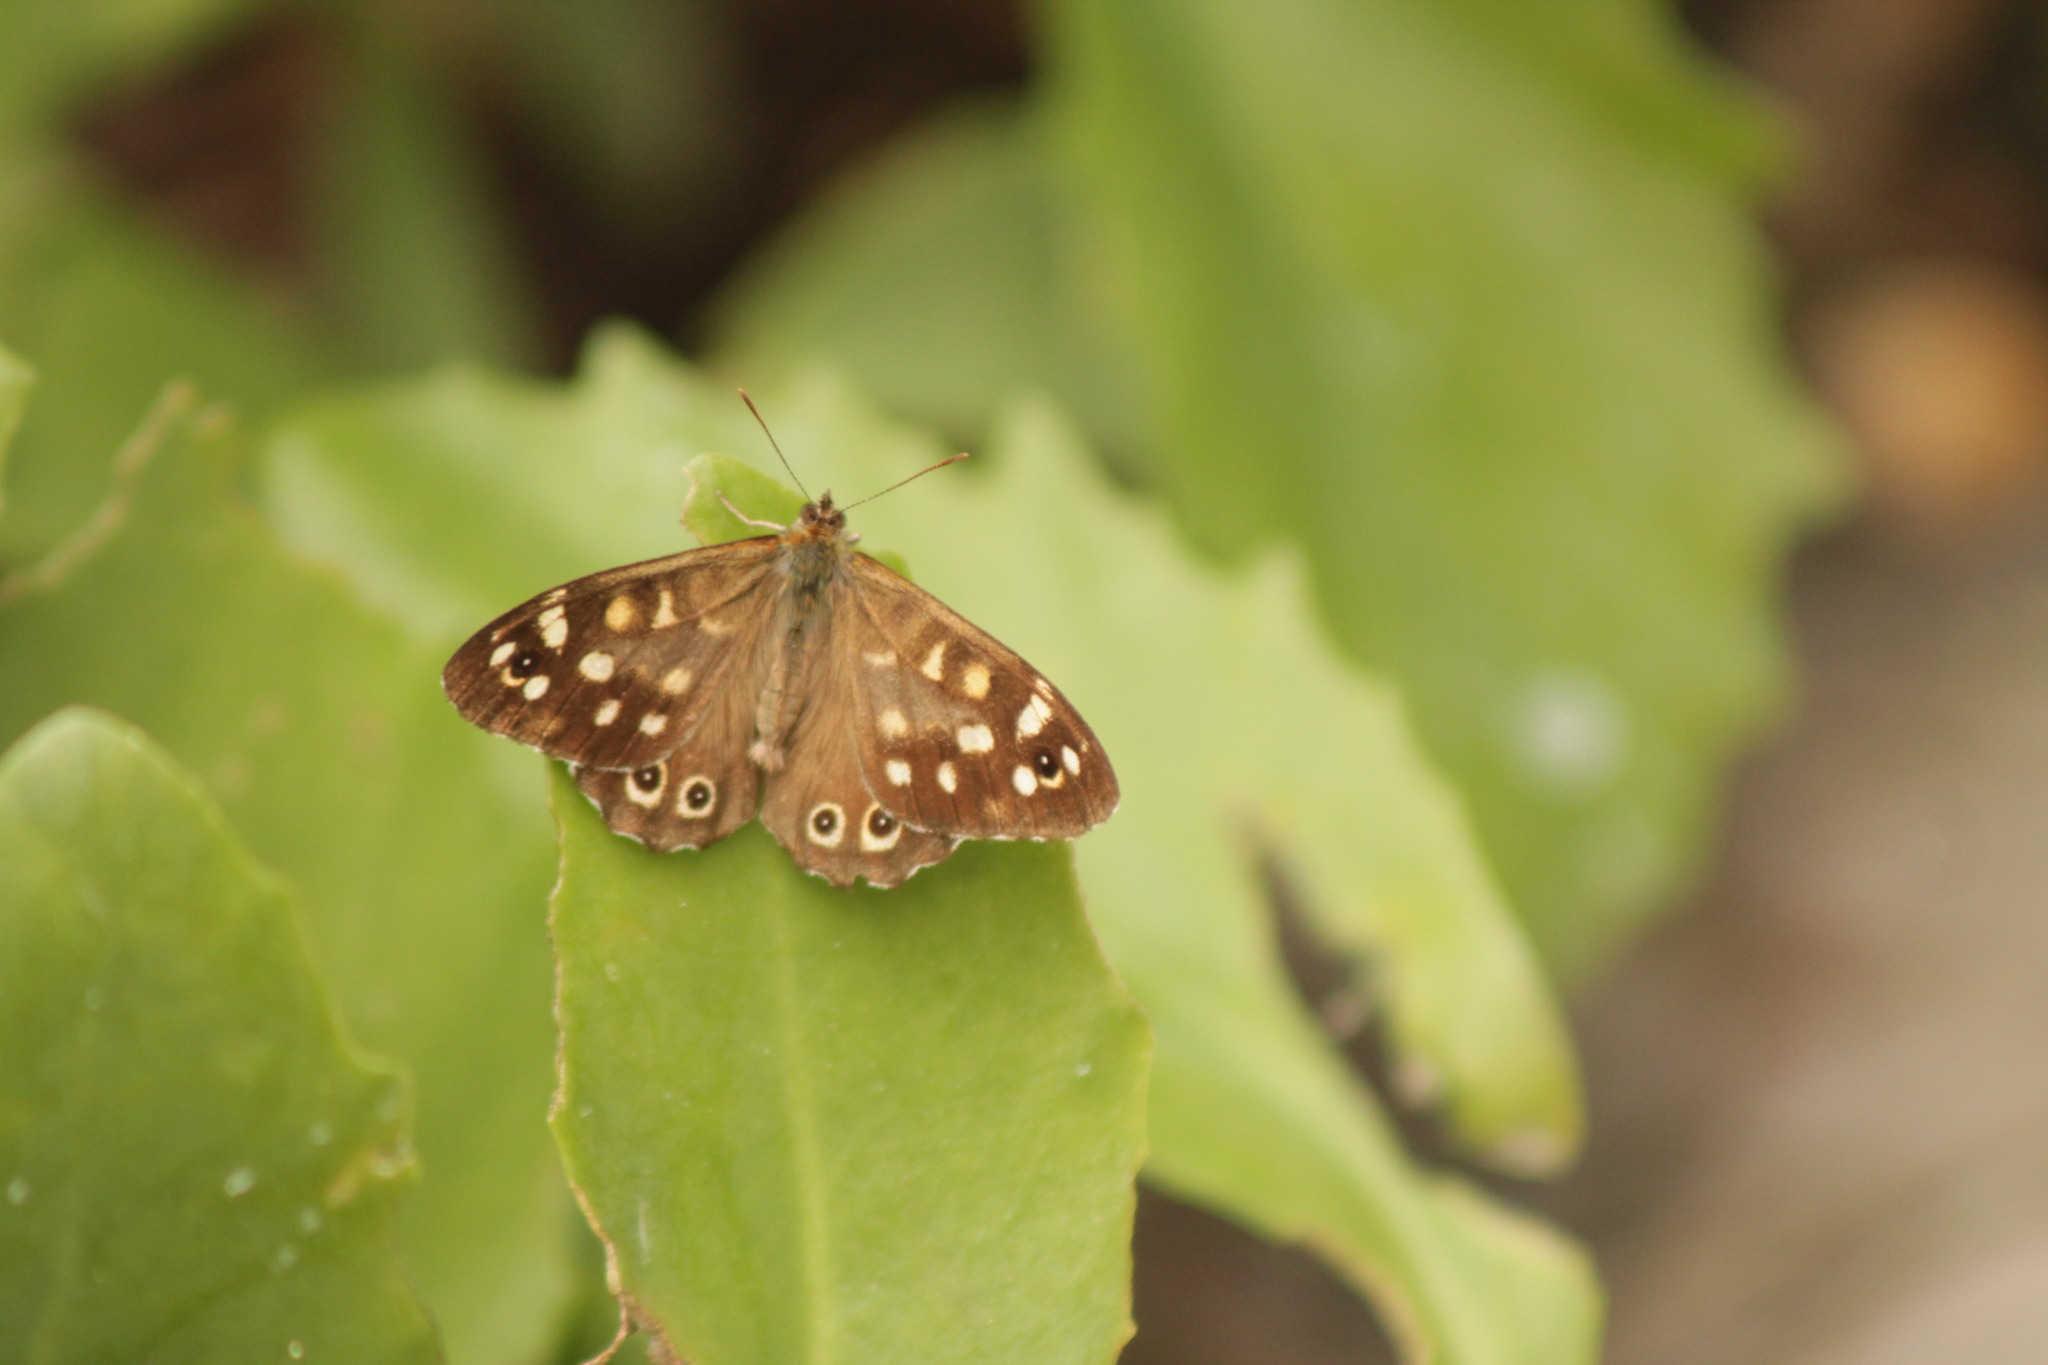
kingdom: Animalia
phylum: Arthropoda
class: Insecta
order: Lepidoptera
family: Nymphalidae
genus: Pararge
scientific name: Pararge aegeria
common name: Speckled wood
